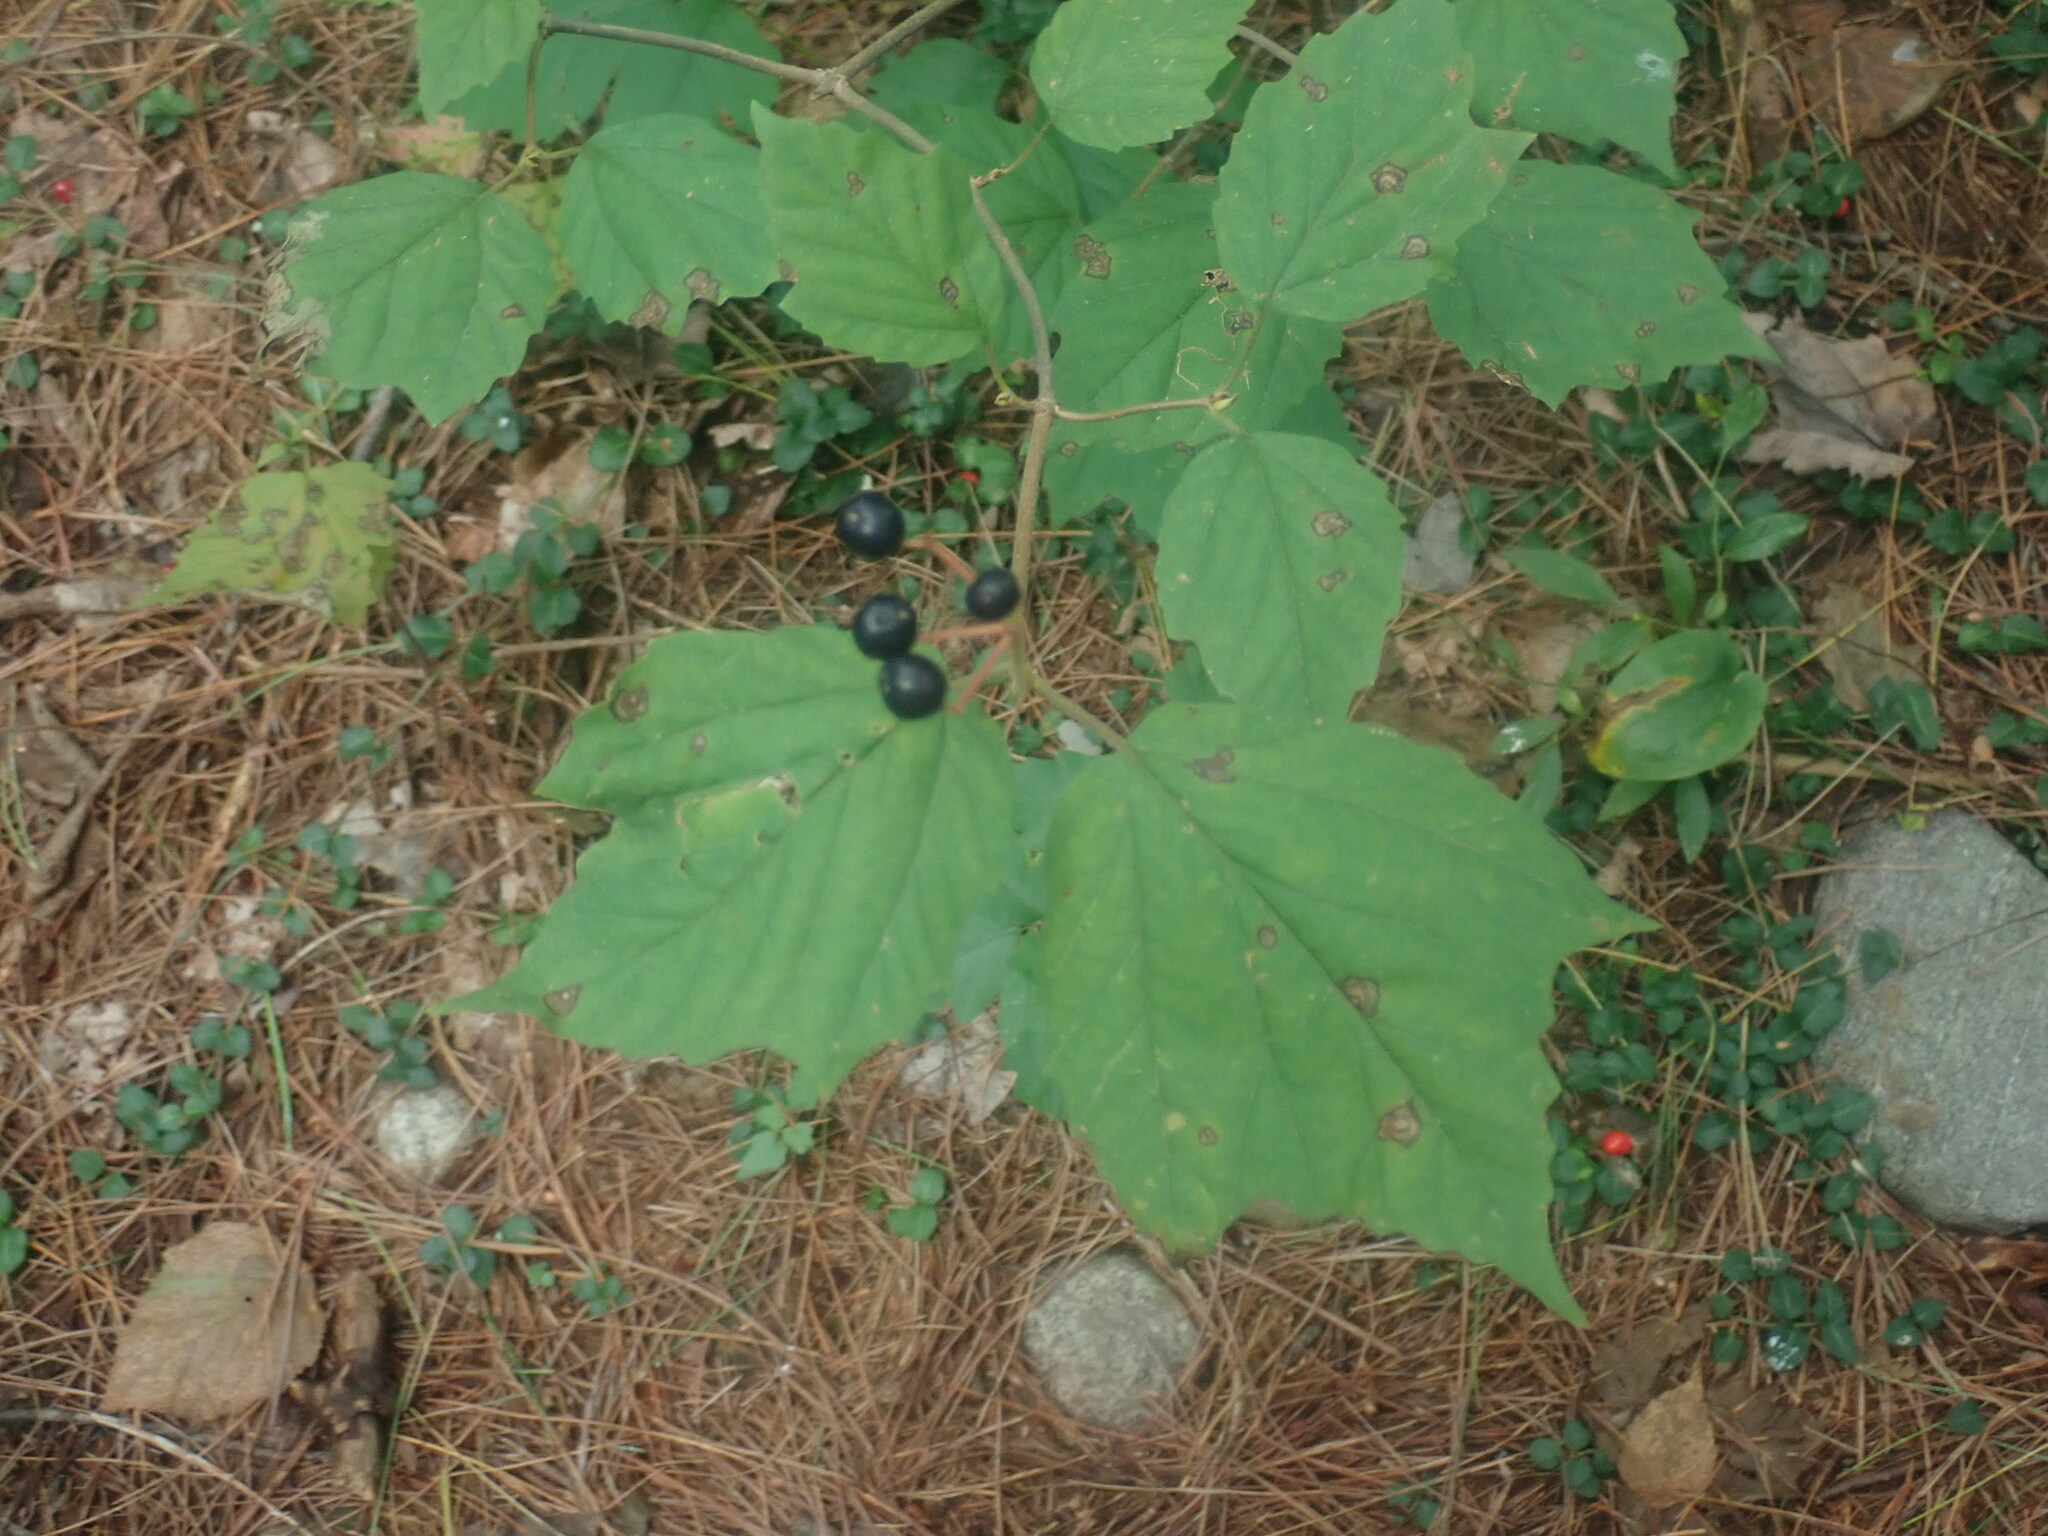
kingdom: Plantae
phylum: Tracheophyta
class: Magnoliopsida
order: Dipsacales
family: Viburnaceae
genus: Viburnum
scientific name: Viburnum acerifolium
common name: Dockmackie
